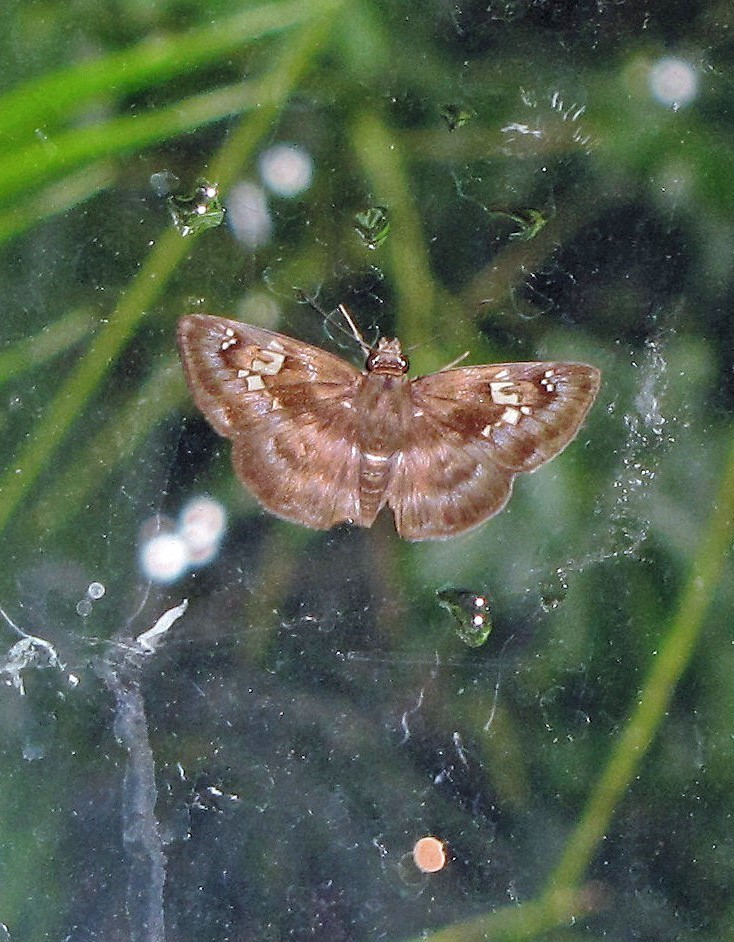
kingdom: Animalia
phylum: Arthropoda
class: Insecta
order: Lepidoptera
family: Hesperiidae
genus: Quadrus
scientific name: Quadrus cerialis
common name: Common blue-skipper
